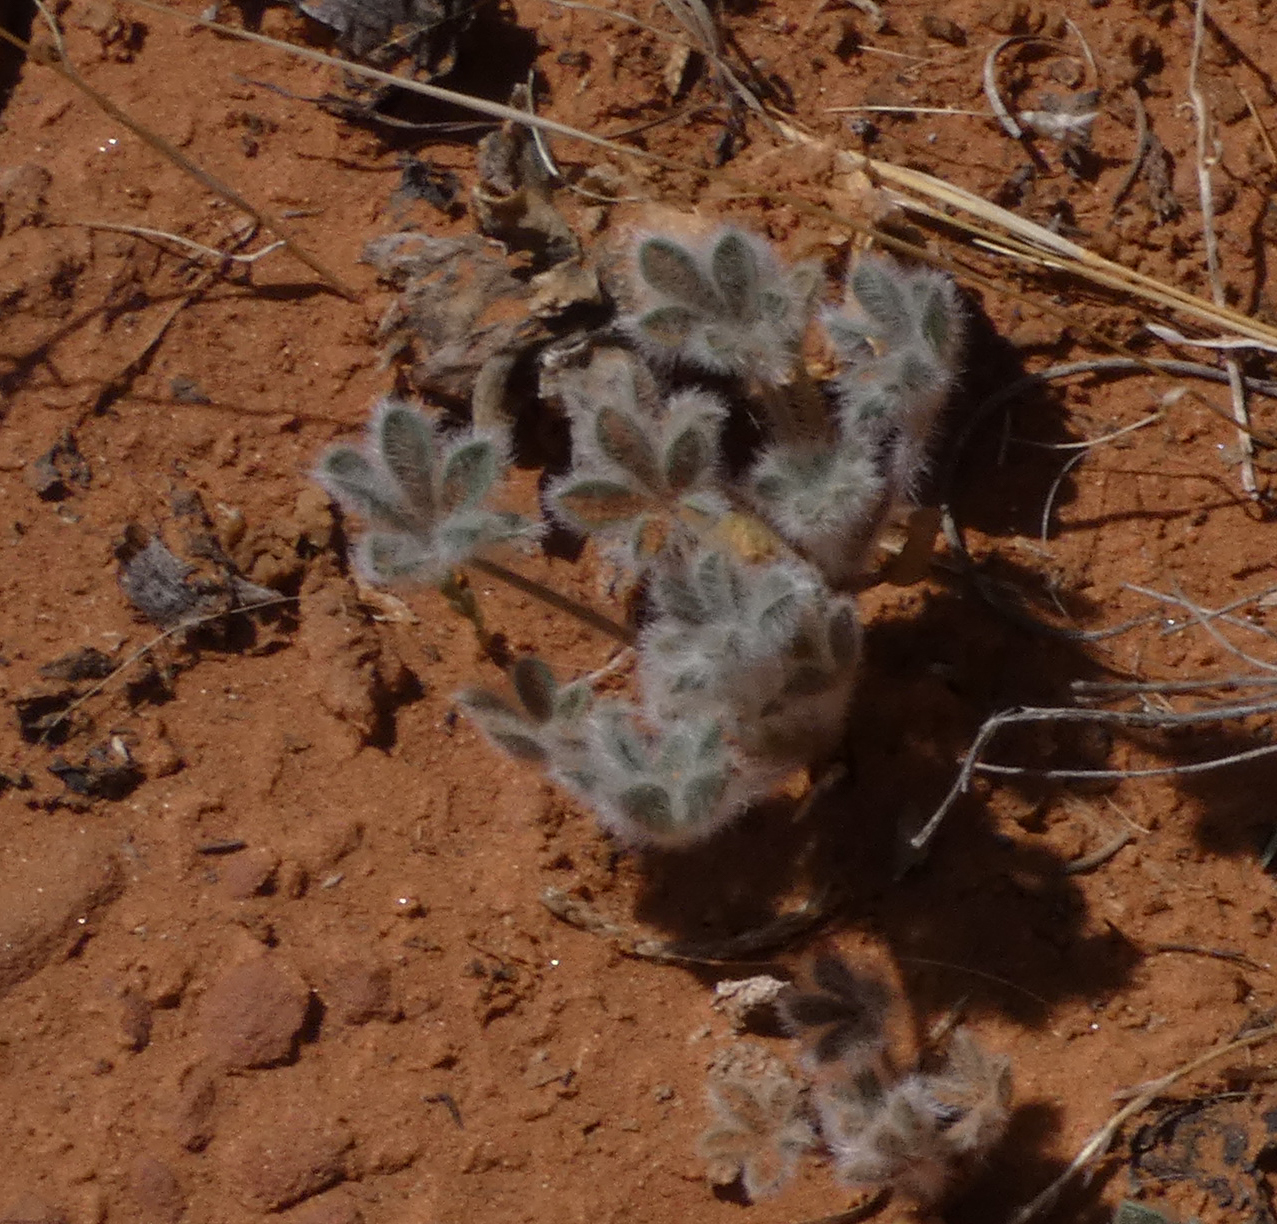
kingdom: Plantae
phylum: Tracheophyta
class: Magnoliopsida
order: Fabales
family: Fabaceae
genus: Lupinus
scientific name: Lupinus concinnus
